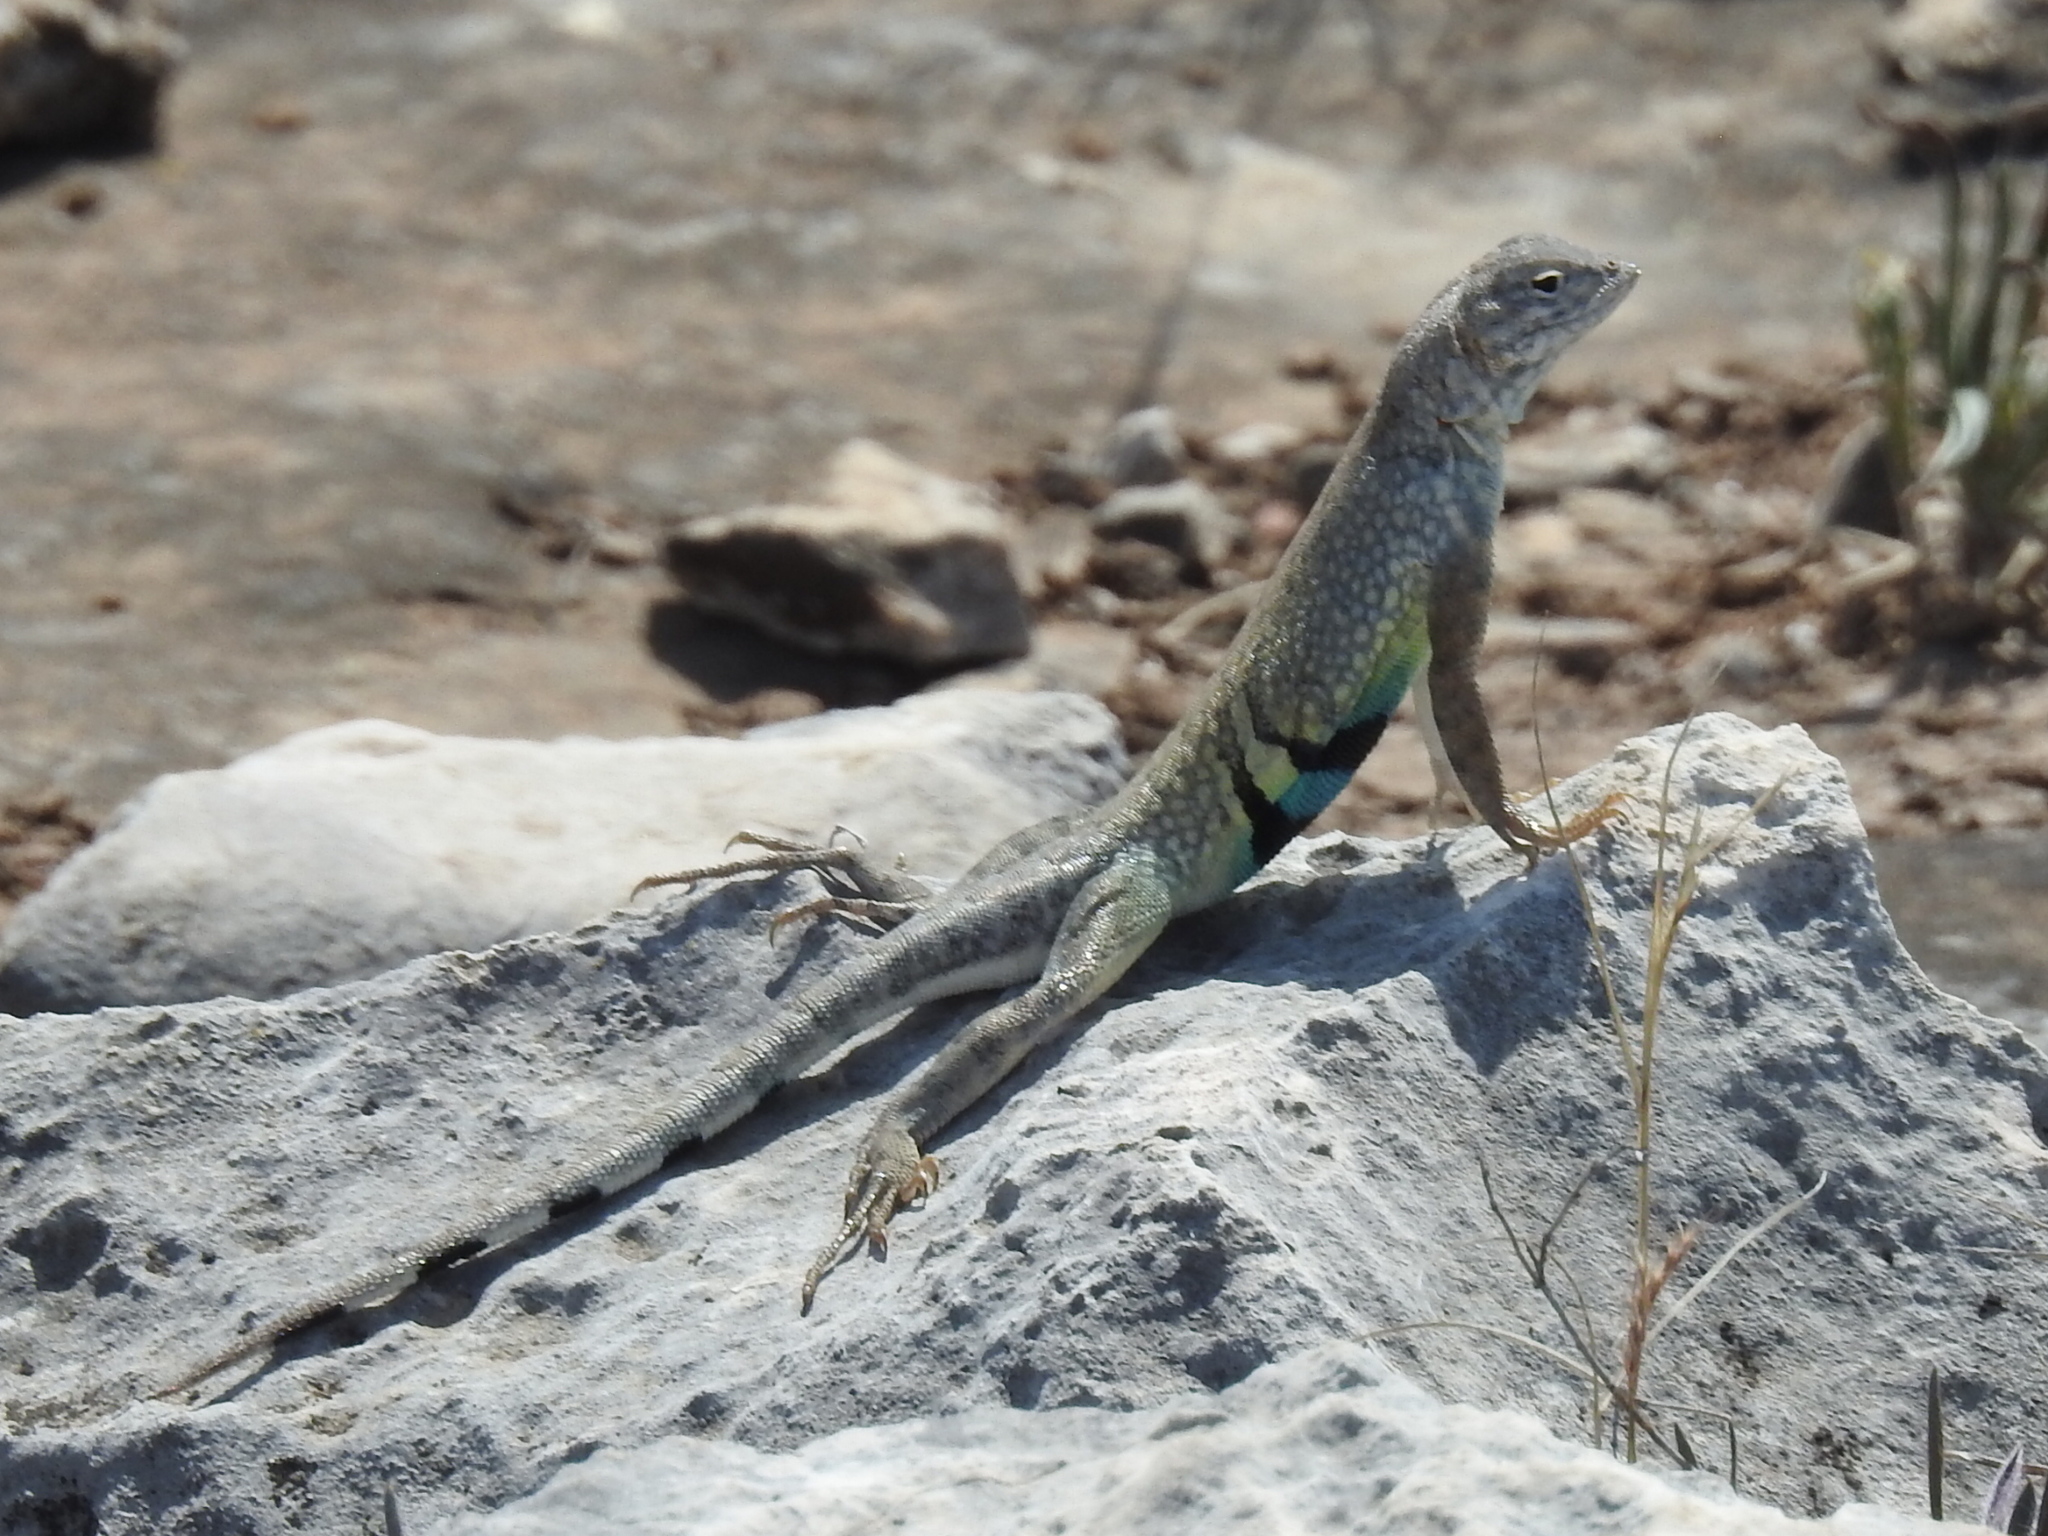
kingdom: Animalia
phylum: Chordata
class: Squamata
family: Phrynosomatidae
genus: Cophosaurus
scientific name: Cophosaurus texanus
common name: Greater earless lizard
